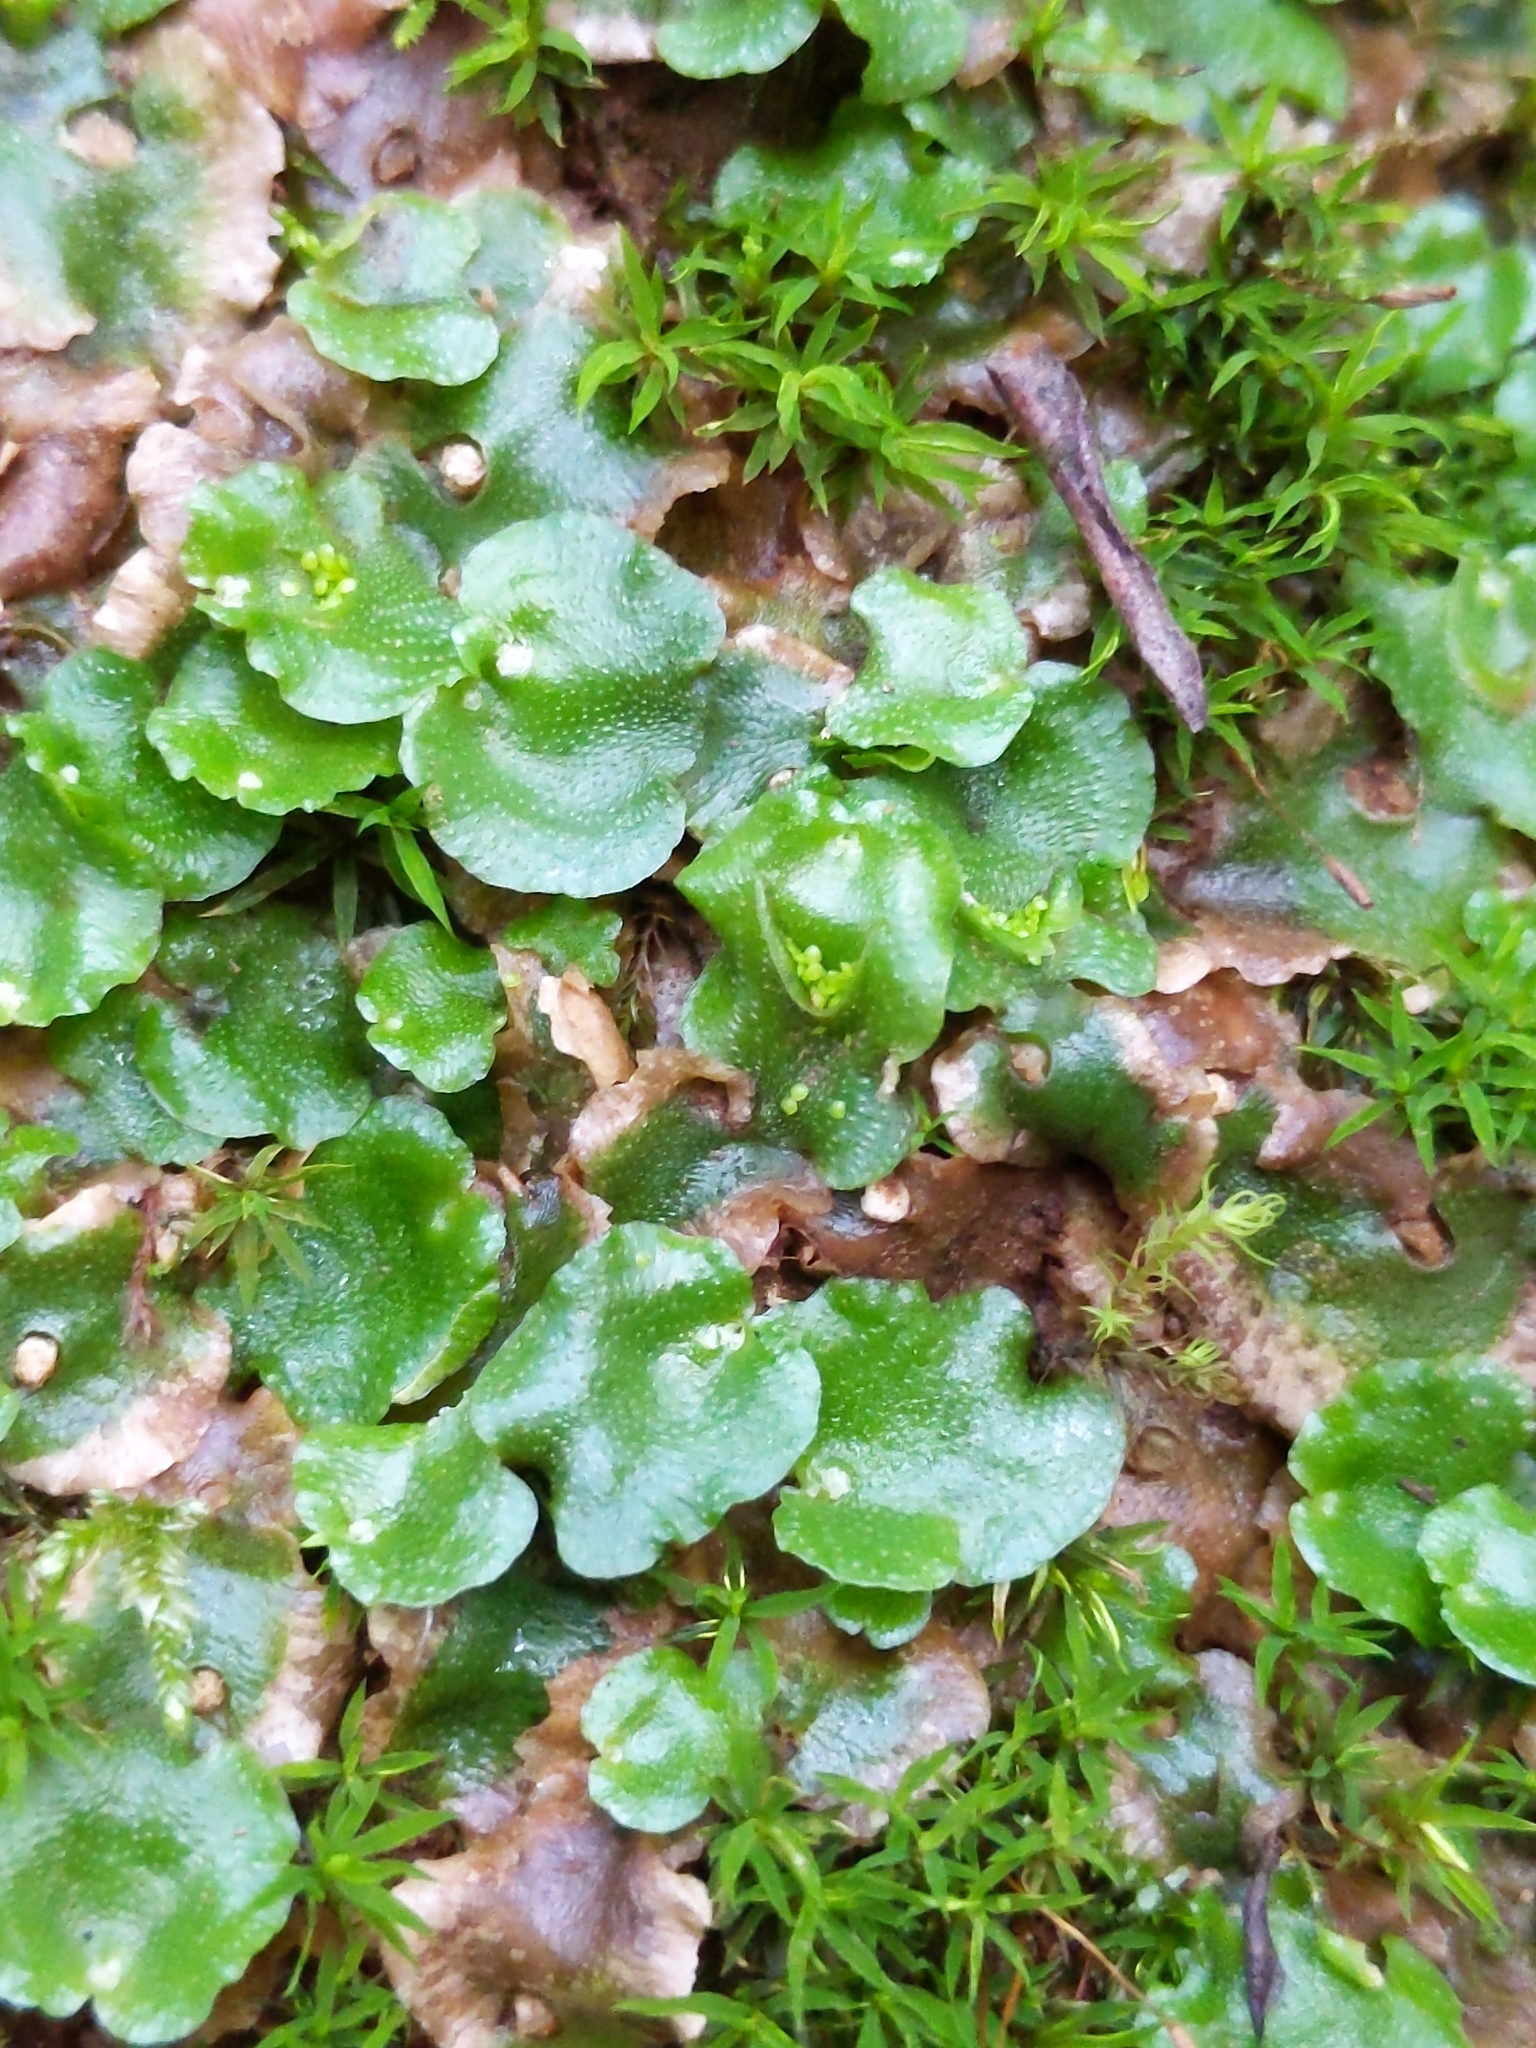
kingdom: Plantae
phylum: Marchantiophyta
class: Marchantiopsida
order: Lunulariales
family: Lunulariaceae
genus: Lunularia
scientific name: Lunularia cruciata
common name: Crescent-cup liverwort
